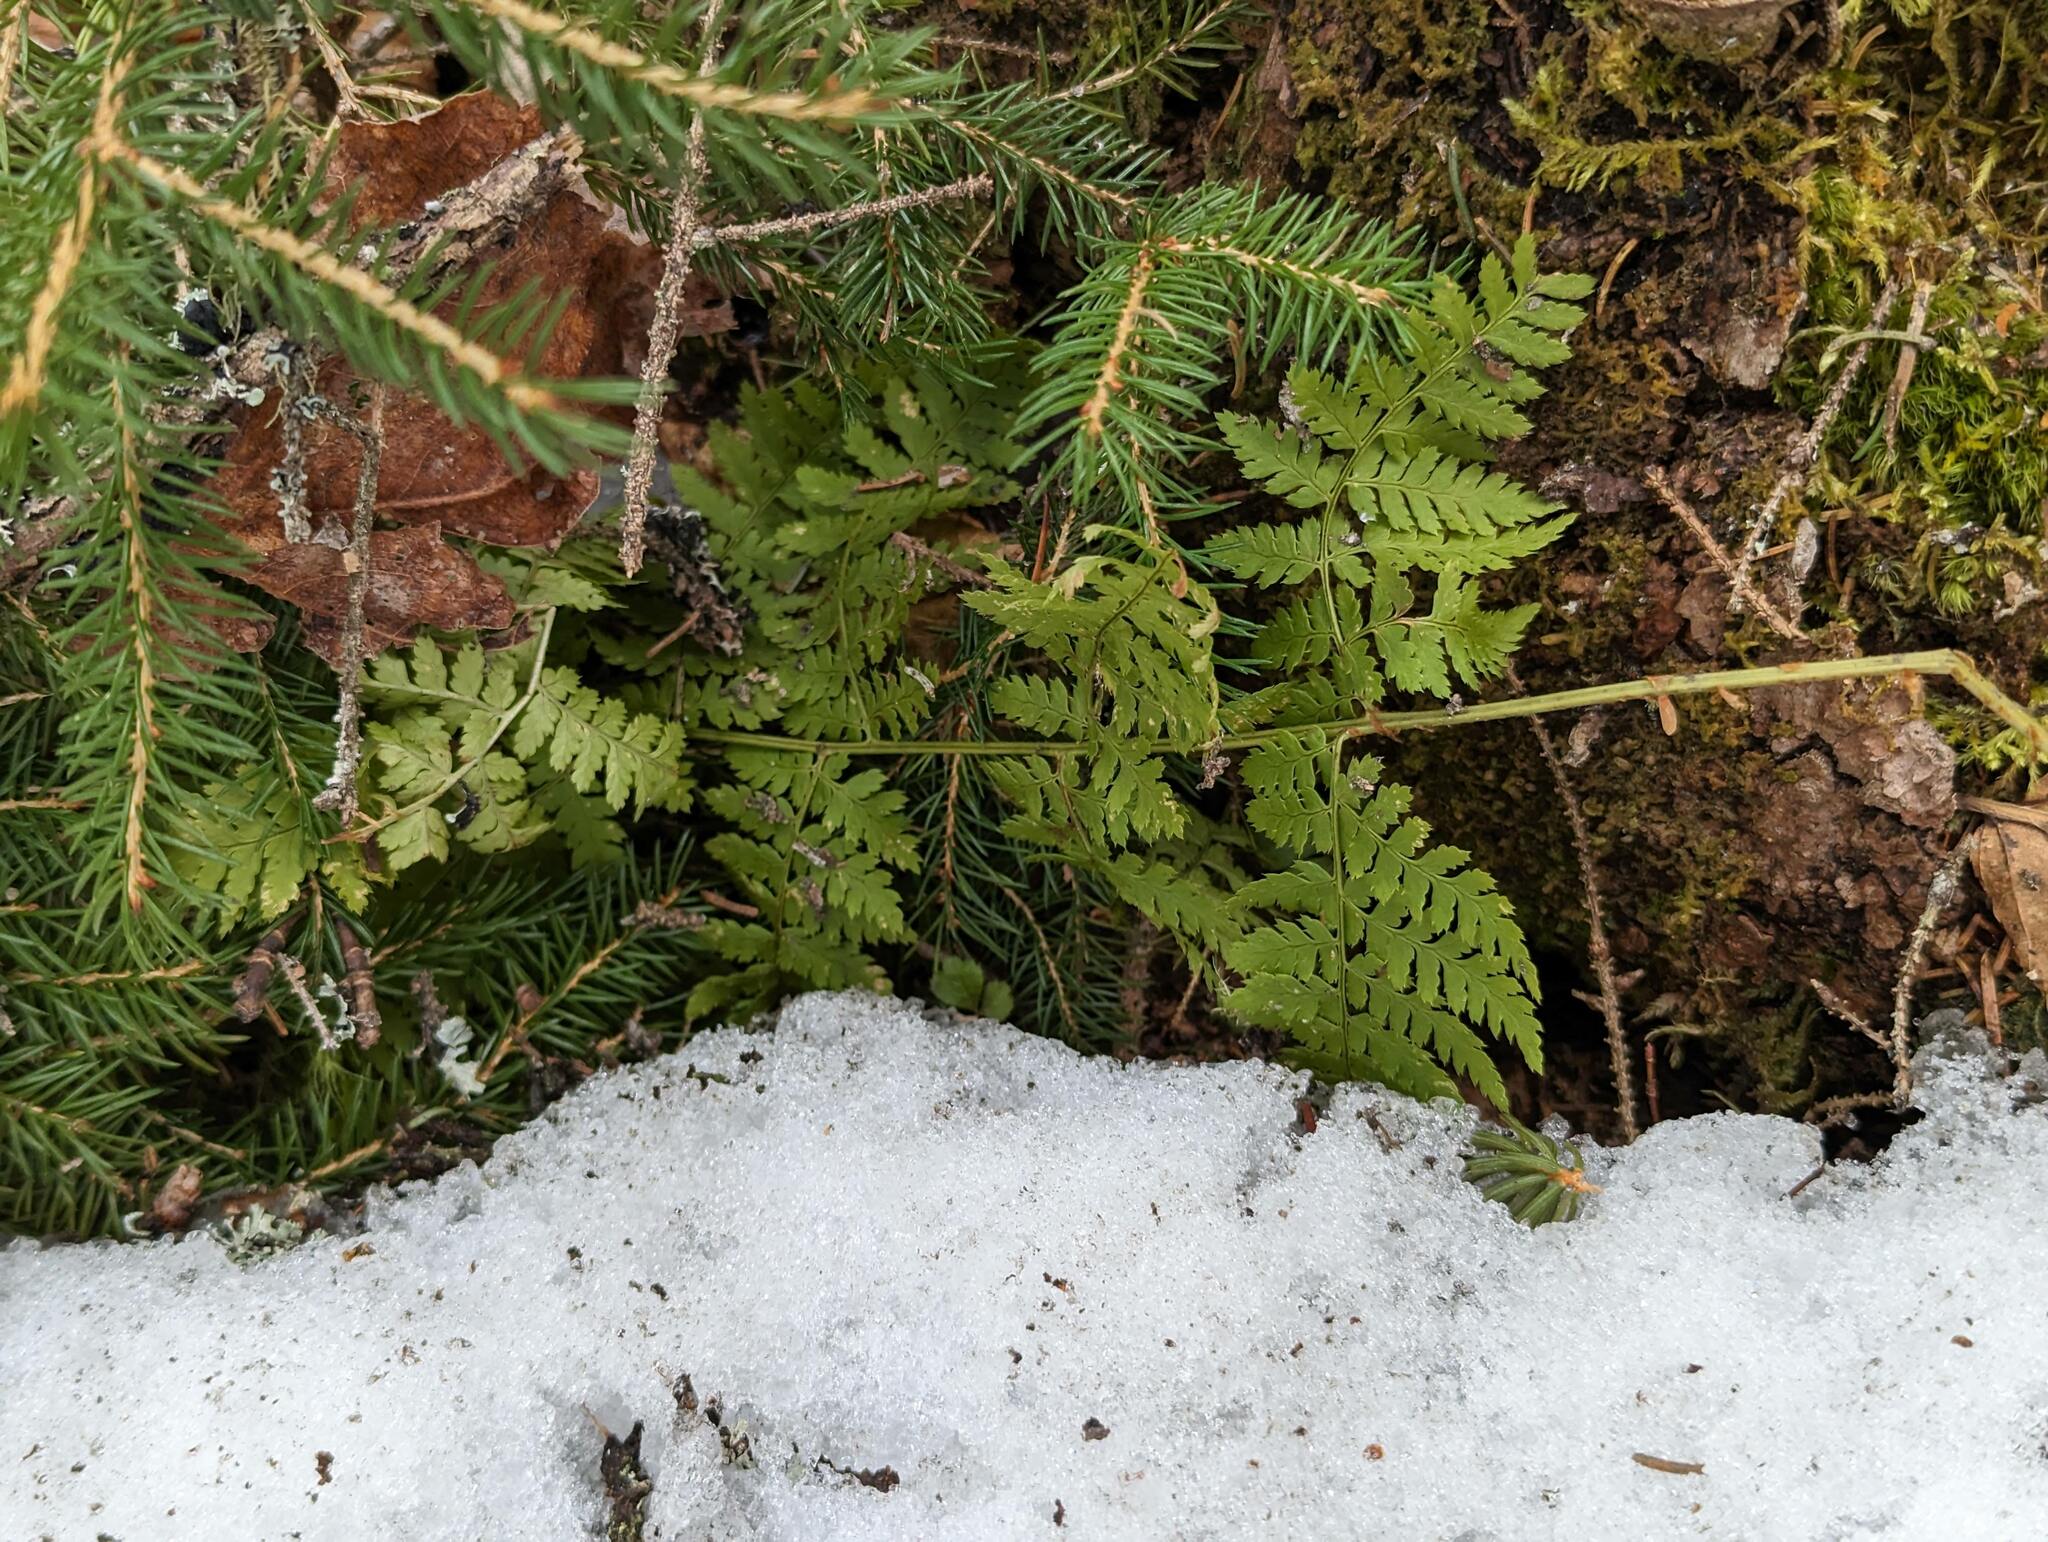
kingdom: Plantae
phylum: Tracheophyta
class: Polypodiopsida
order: Polypodiales
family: Dryopteridaceae
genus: Dryopteris
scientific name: Dryopteris intermedia
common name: Evergreen wood fern
